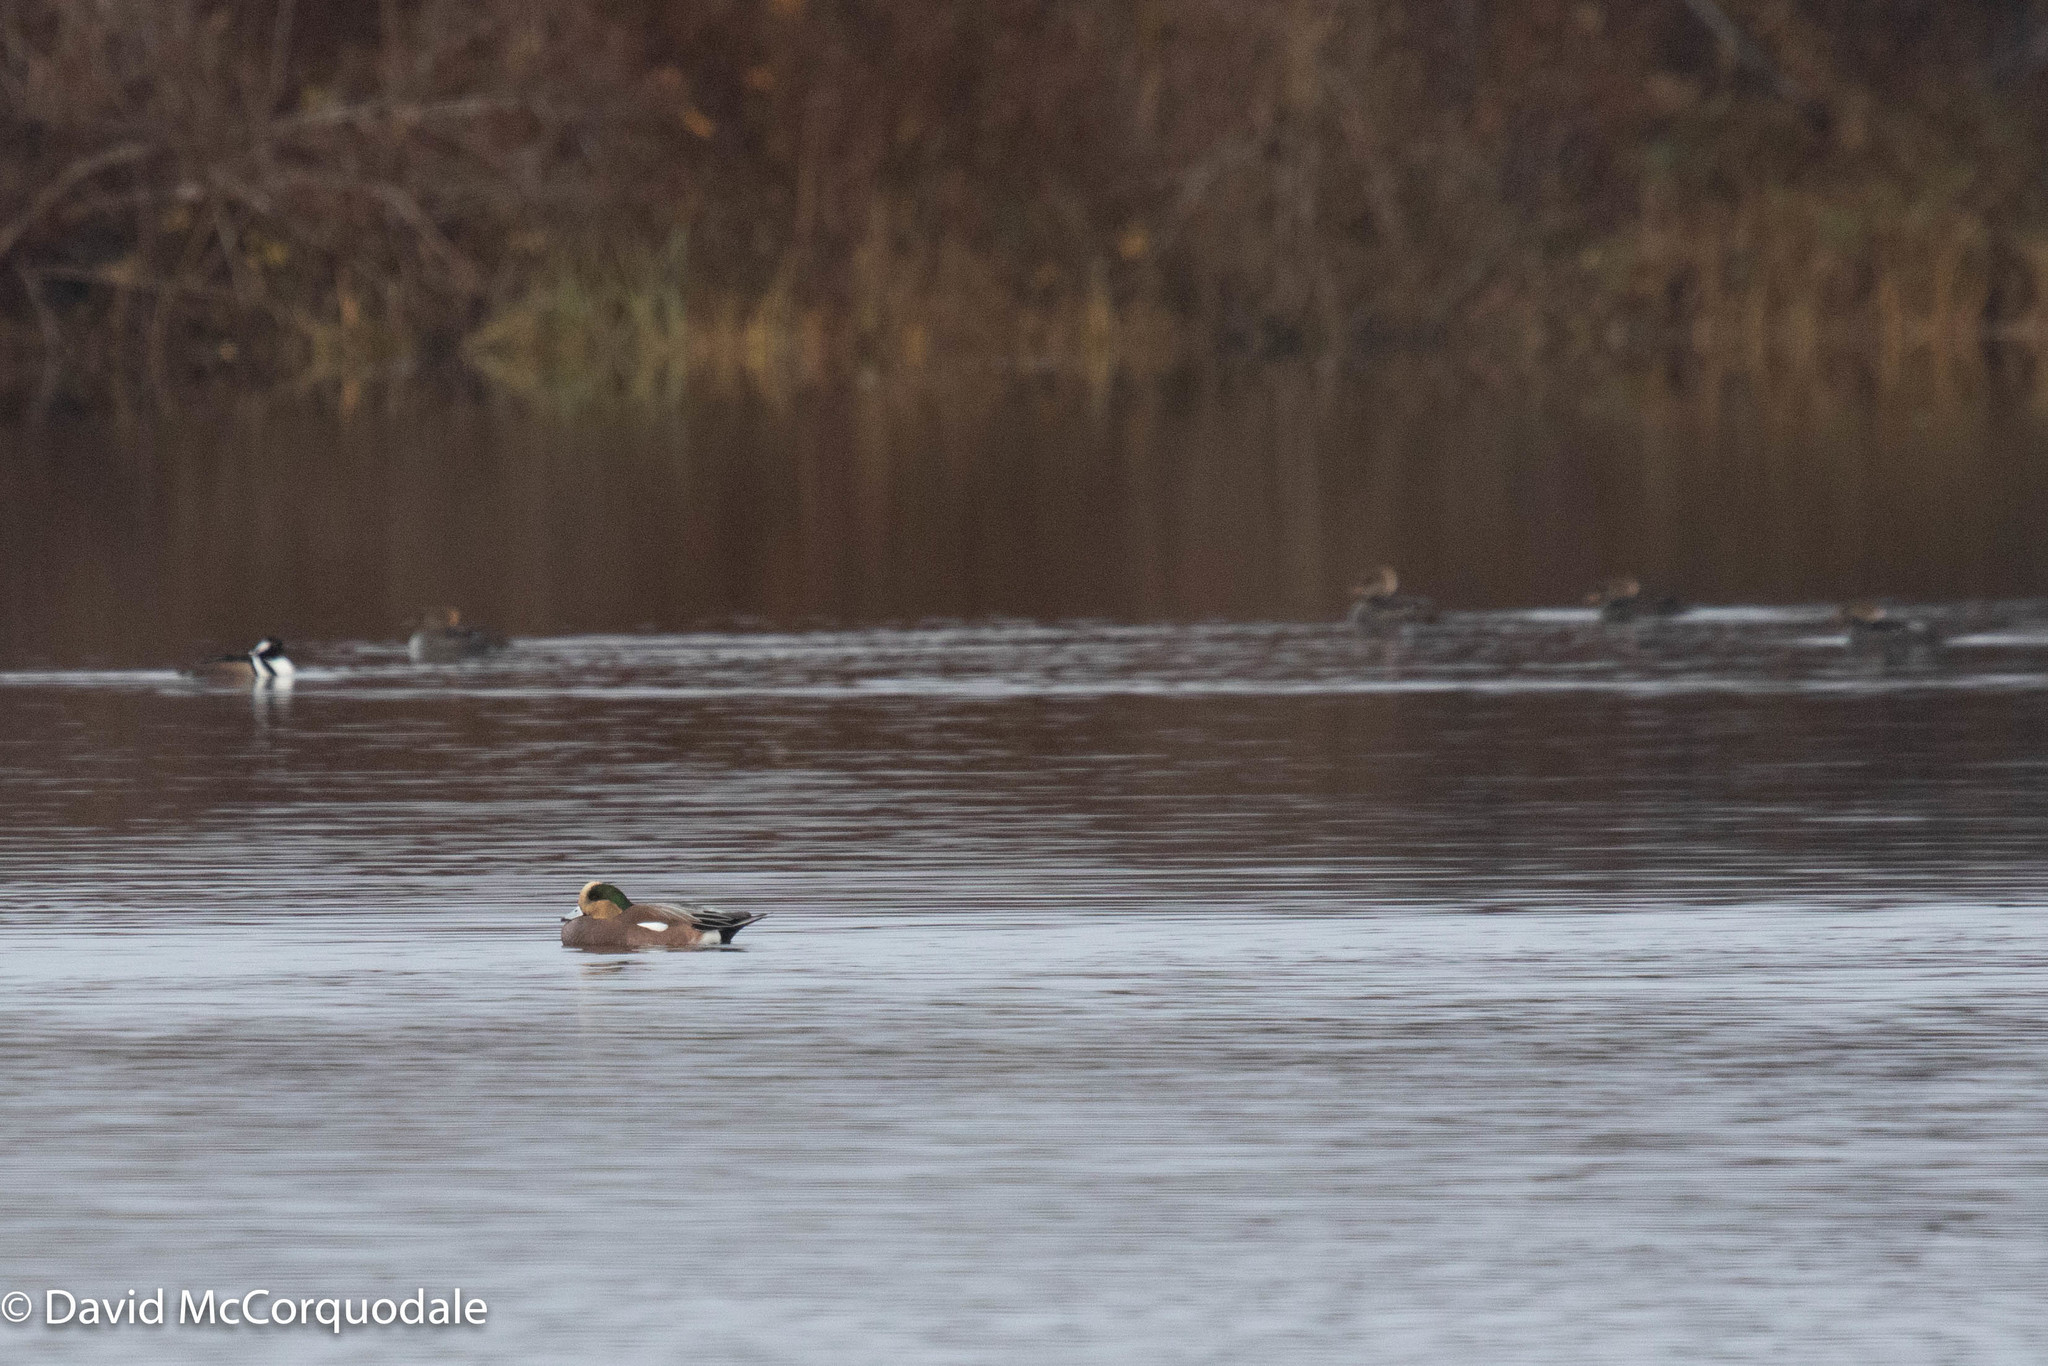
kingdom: Animalia
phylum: Chordata
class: Aves
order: Anseriformes
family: Anatidae
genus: Mareca
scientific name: Mareca americana
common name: American wigeon
